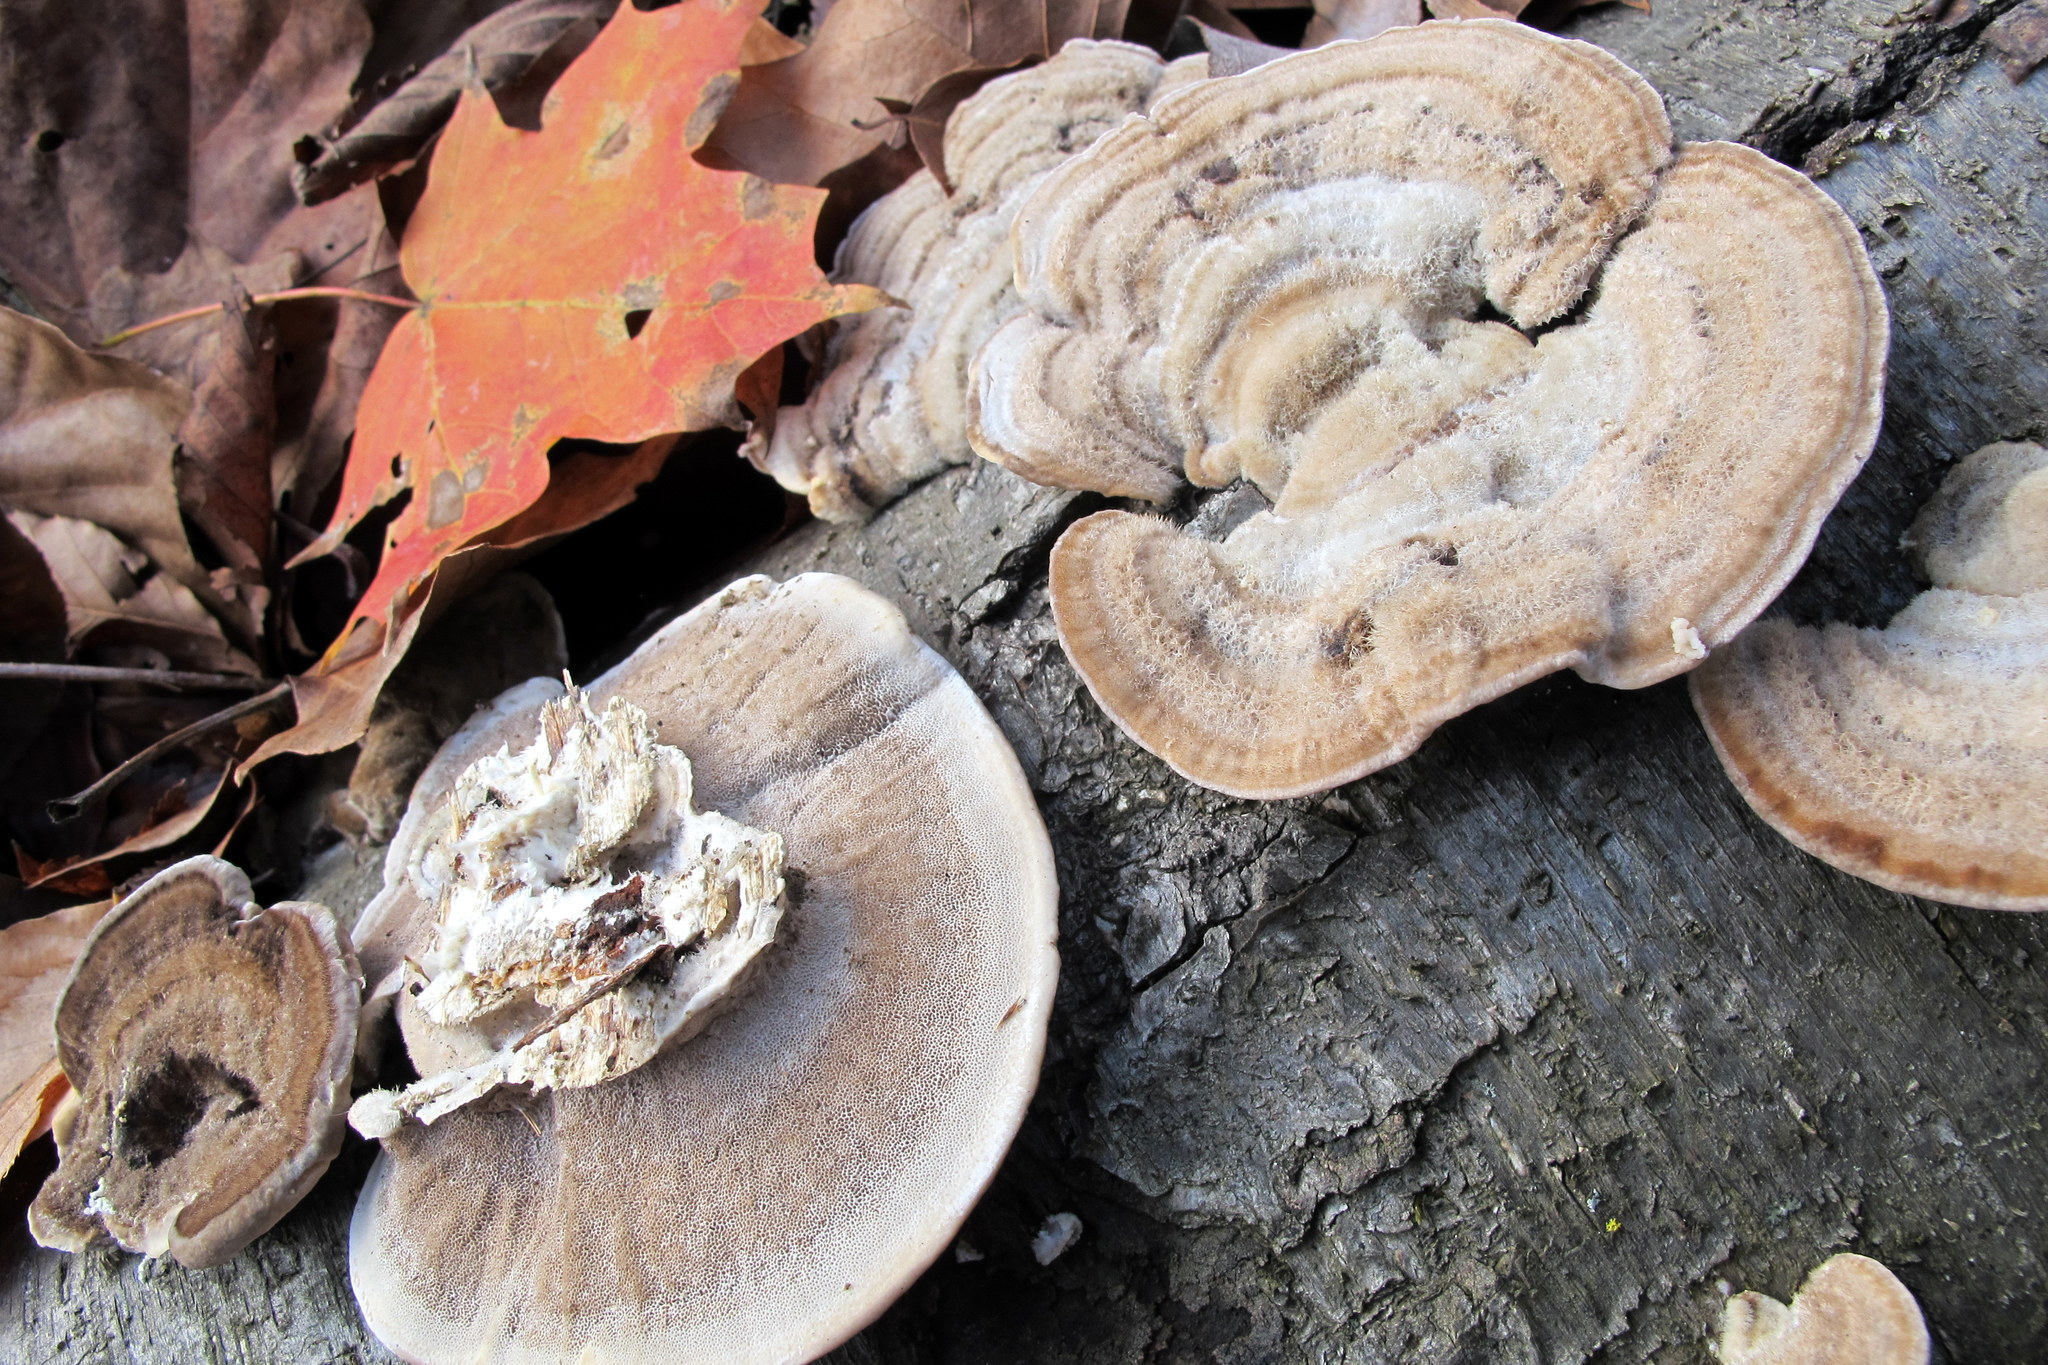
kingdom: Fungi
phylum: Basidiomycota
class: Agaricomycetes
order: Polyporales
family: Polyporaceae
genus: Trametes
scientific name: Trametes pubescens
